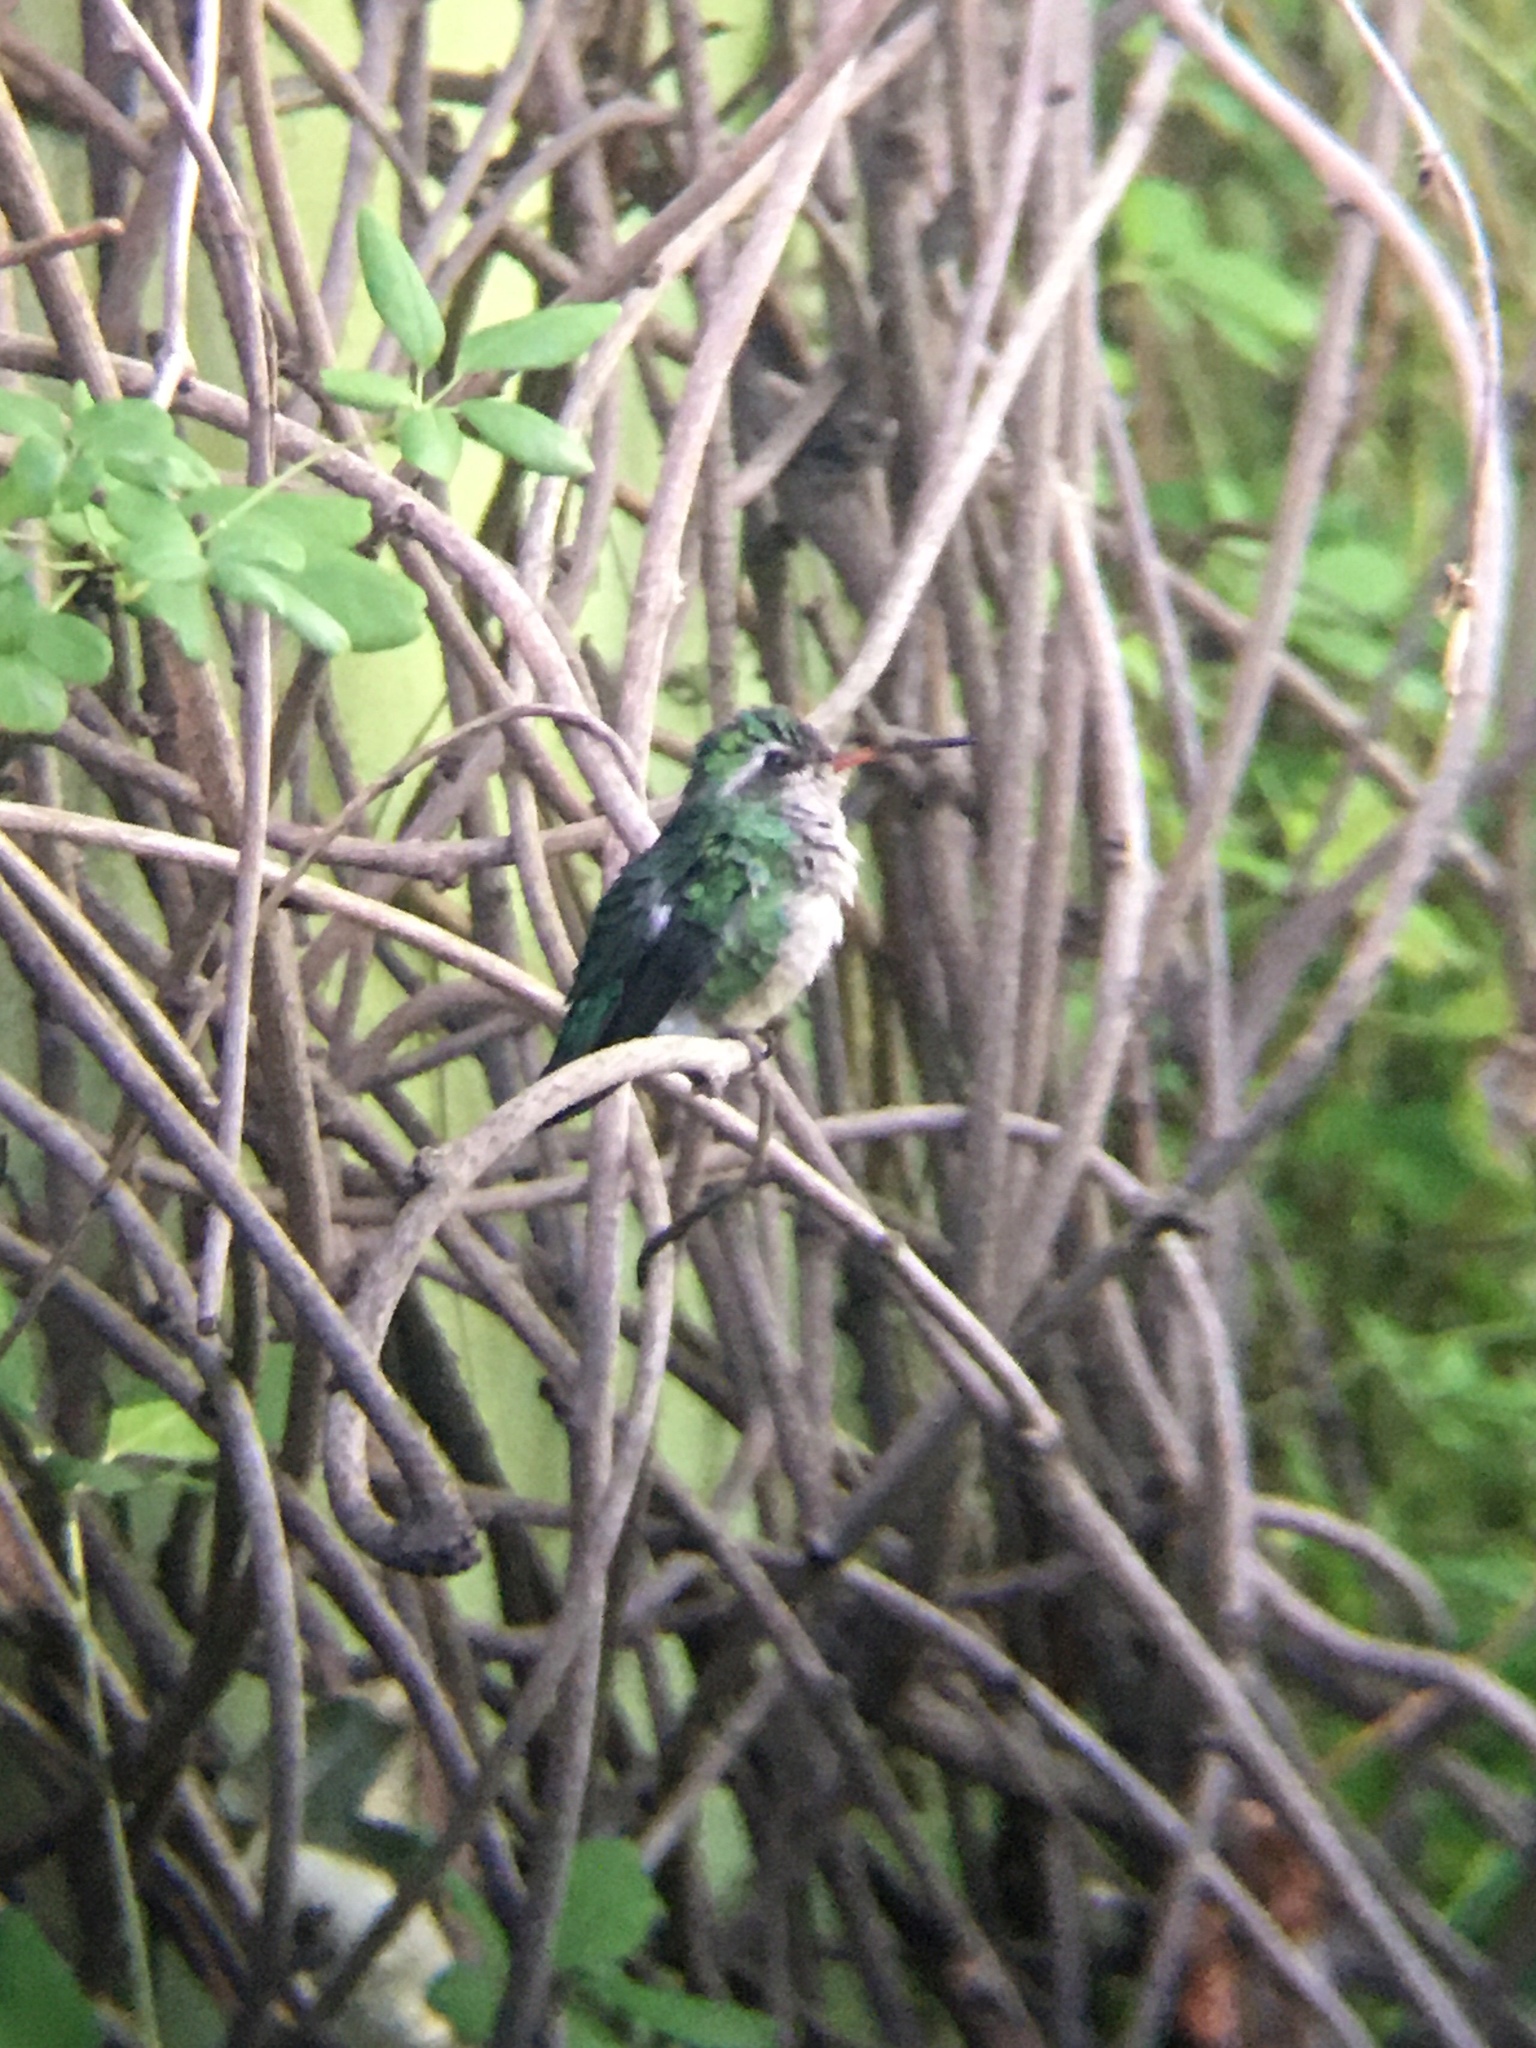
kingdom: Animalia
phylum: Chordata
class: Aves
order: Apodiformes
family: Trochilidae
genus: Chlorostilbon
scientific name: Chlorostilbon lucidus
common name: Glittering-bellied emerald
